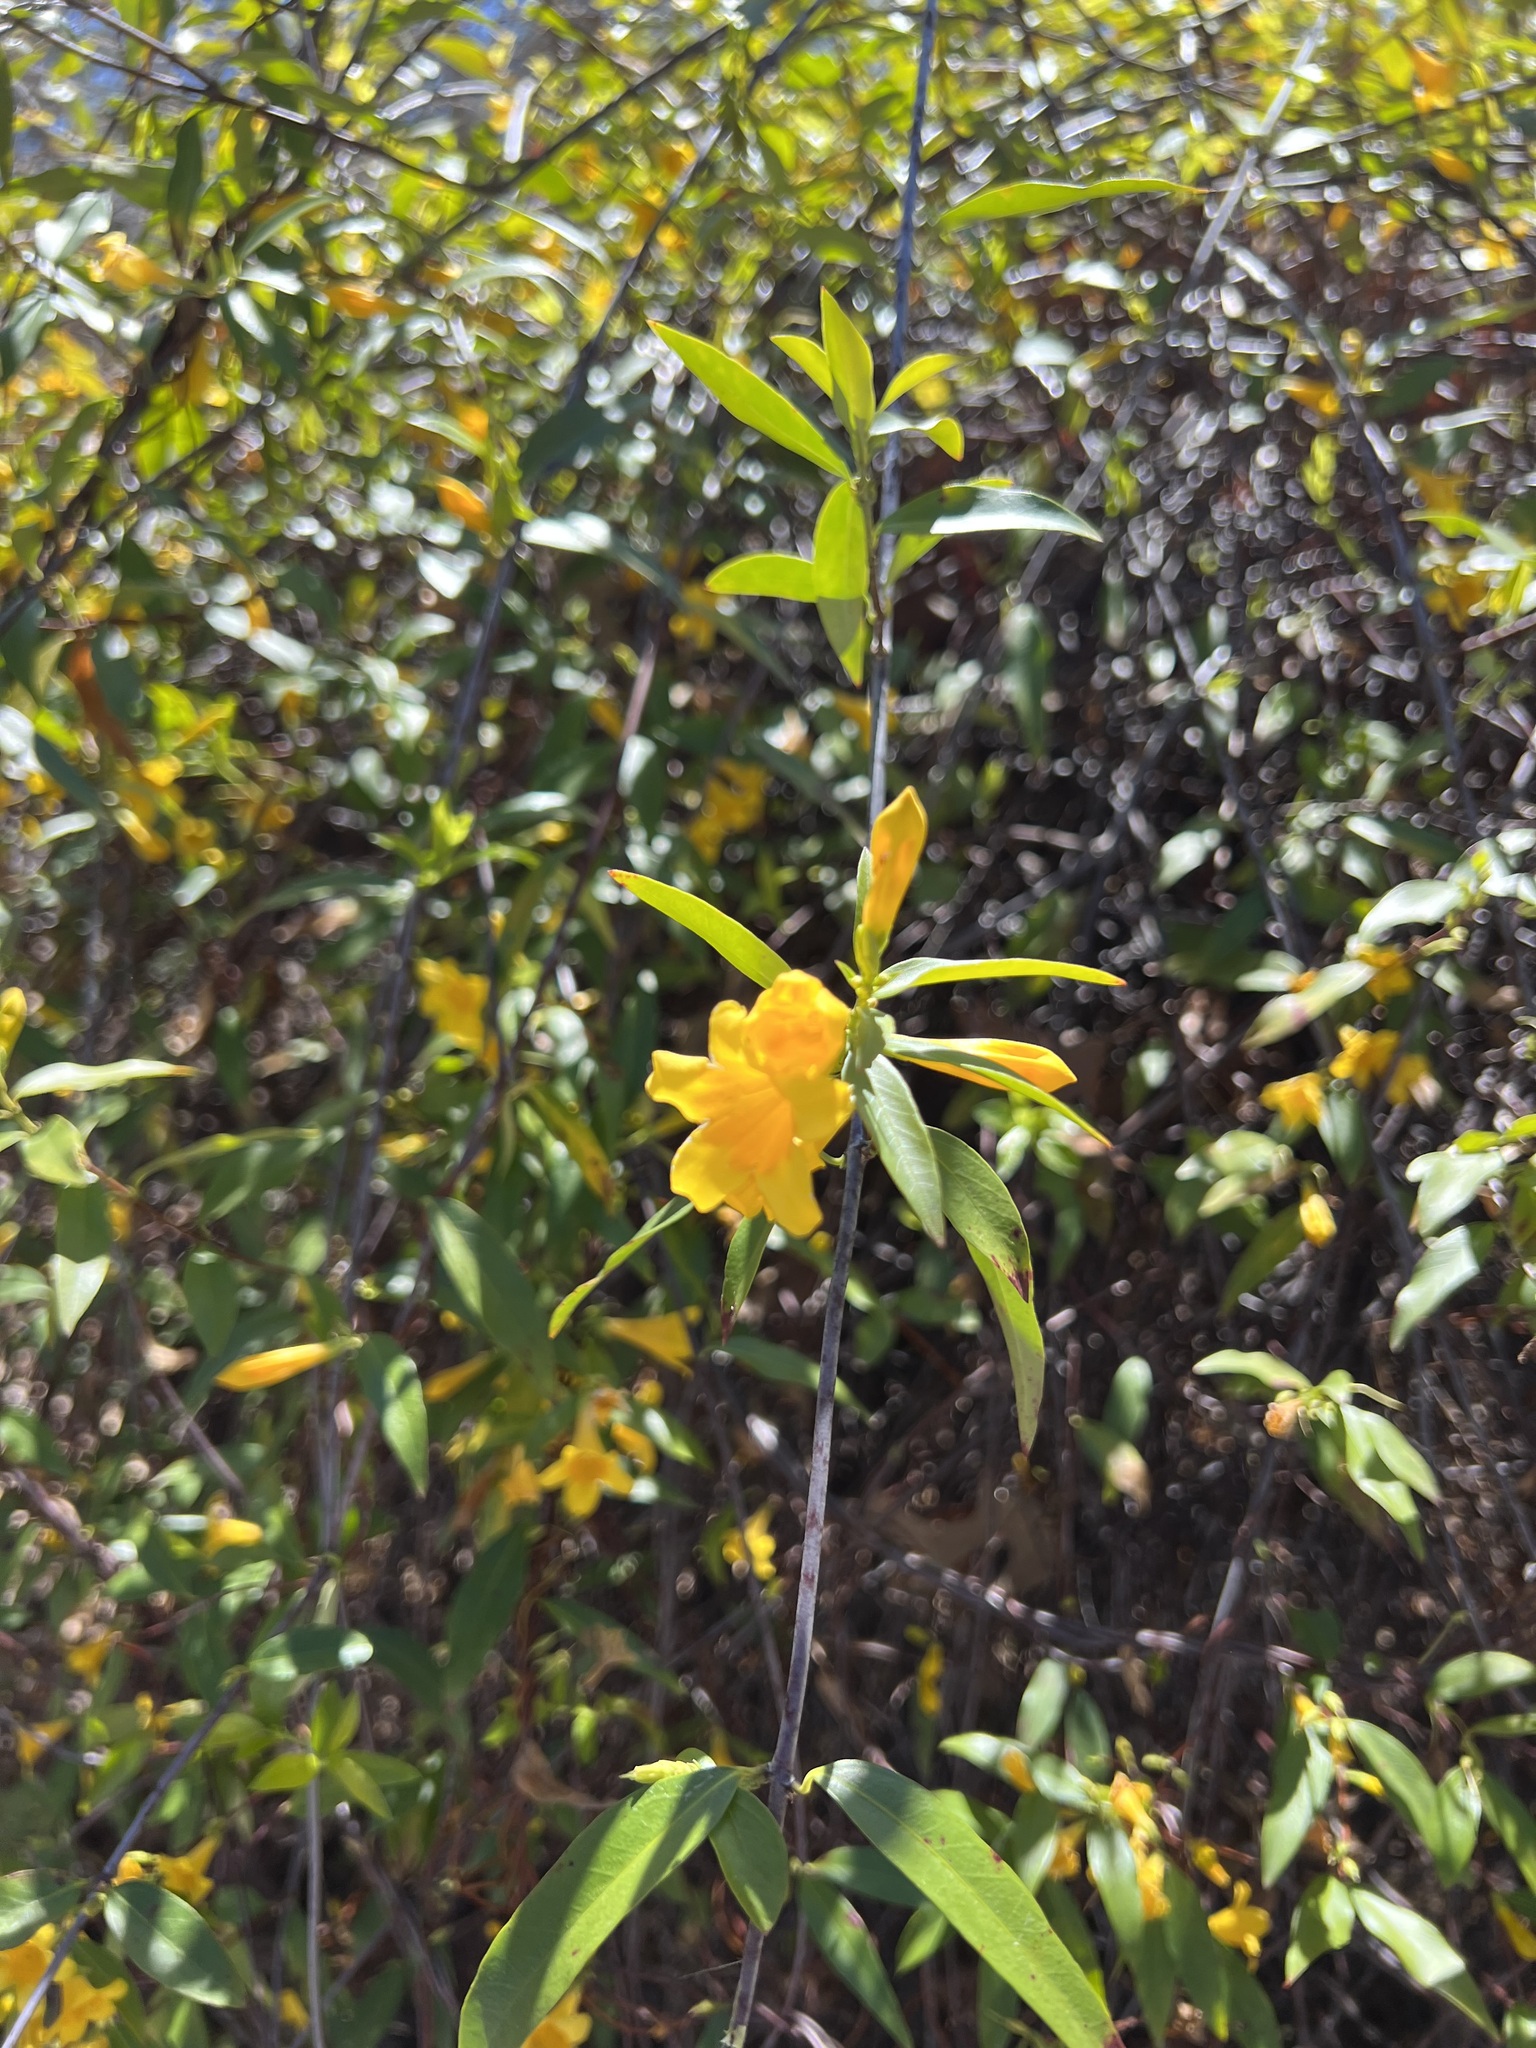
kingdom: Plantae
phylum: Tracheophyta
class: Magnoliopsida
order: Gentianales
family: Gelsemiaceae
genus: Gelsemium
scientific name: Gelsemium sempervirens
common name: Carolina-jasmine
